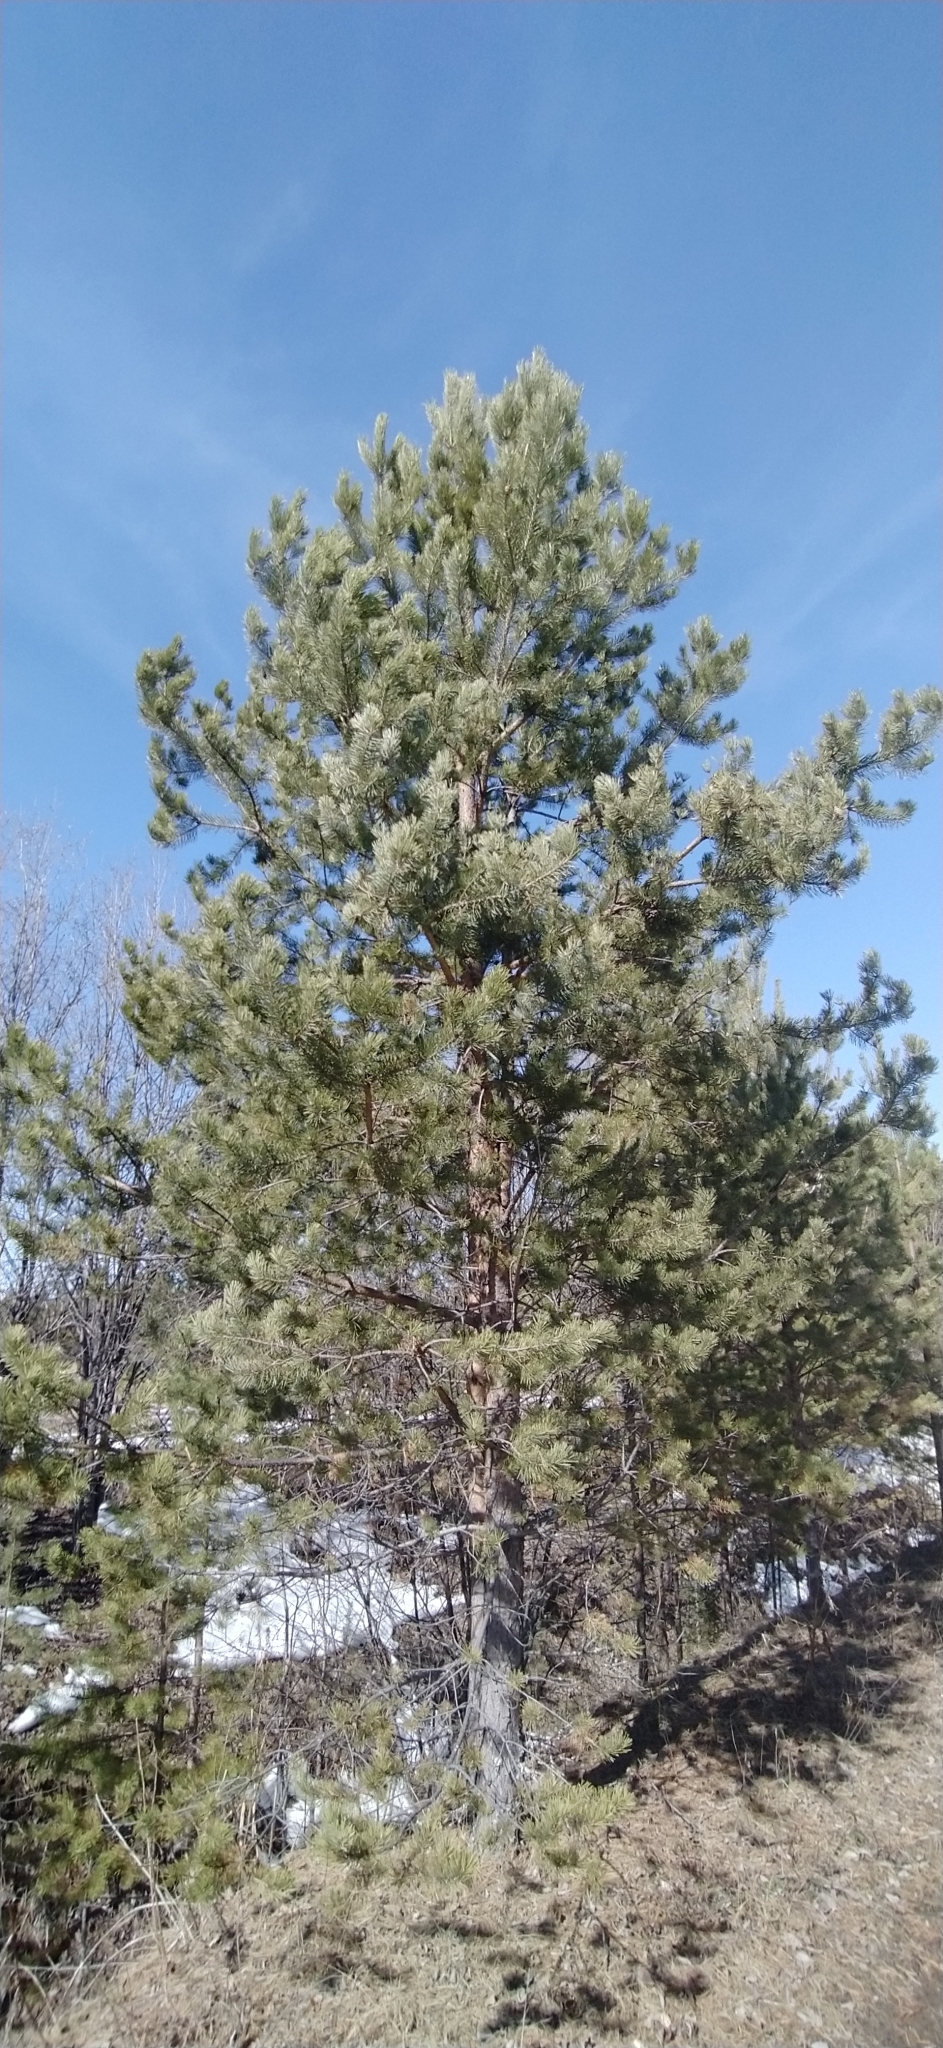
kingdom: Plantae
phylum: Tracheophyta
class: Pinopsida
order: Pinales
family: Pinaceae
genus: Pinus
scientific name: Pinus sylvestris
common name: Scots pine
